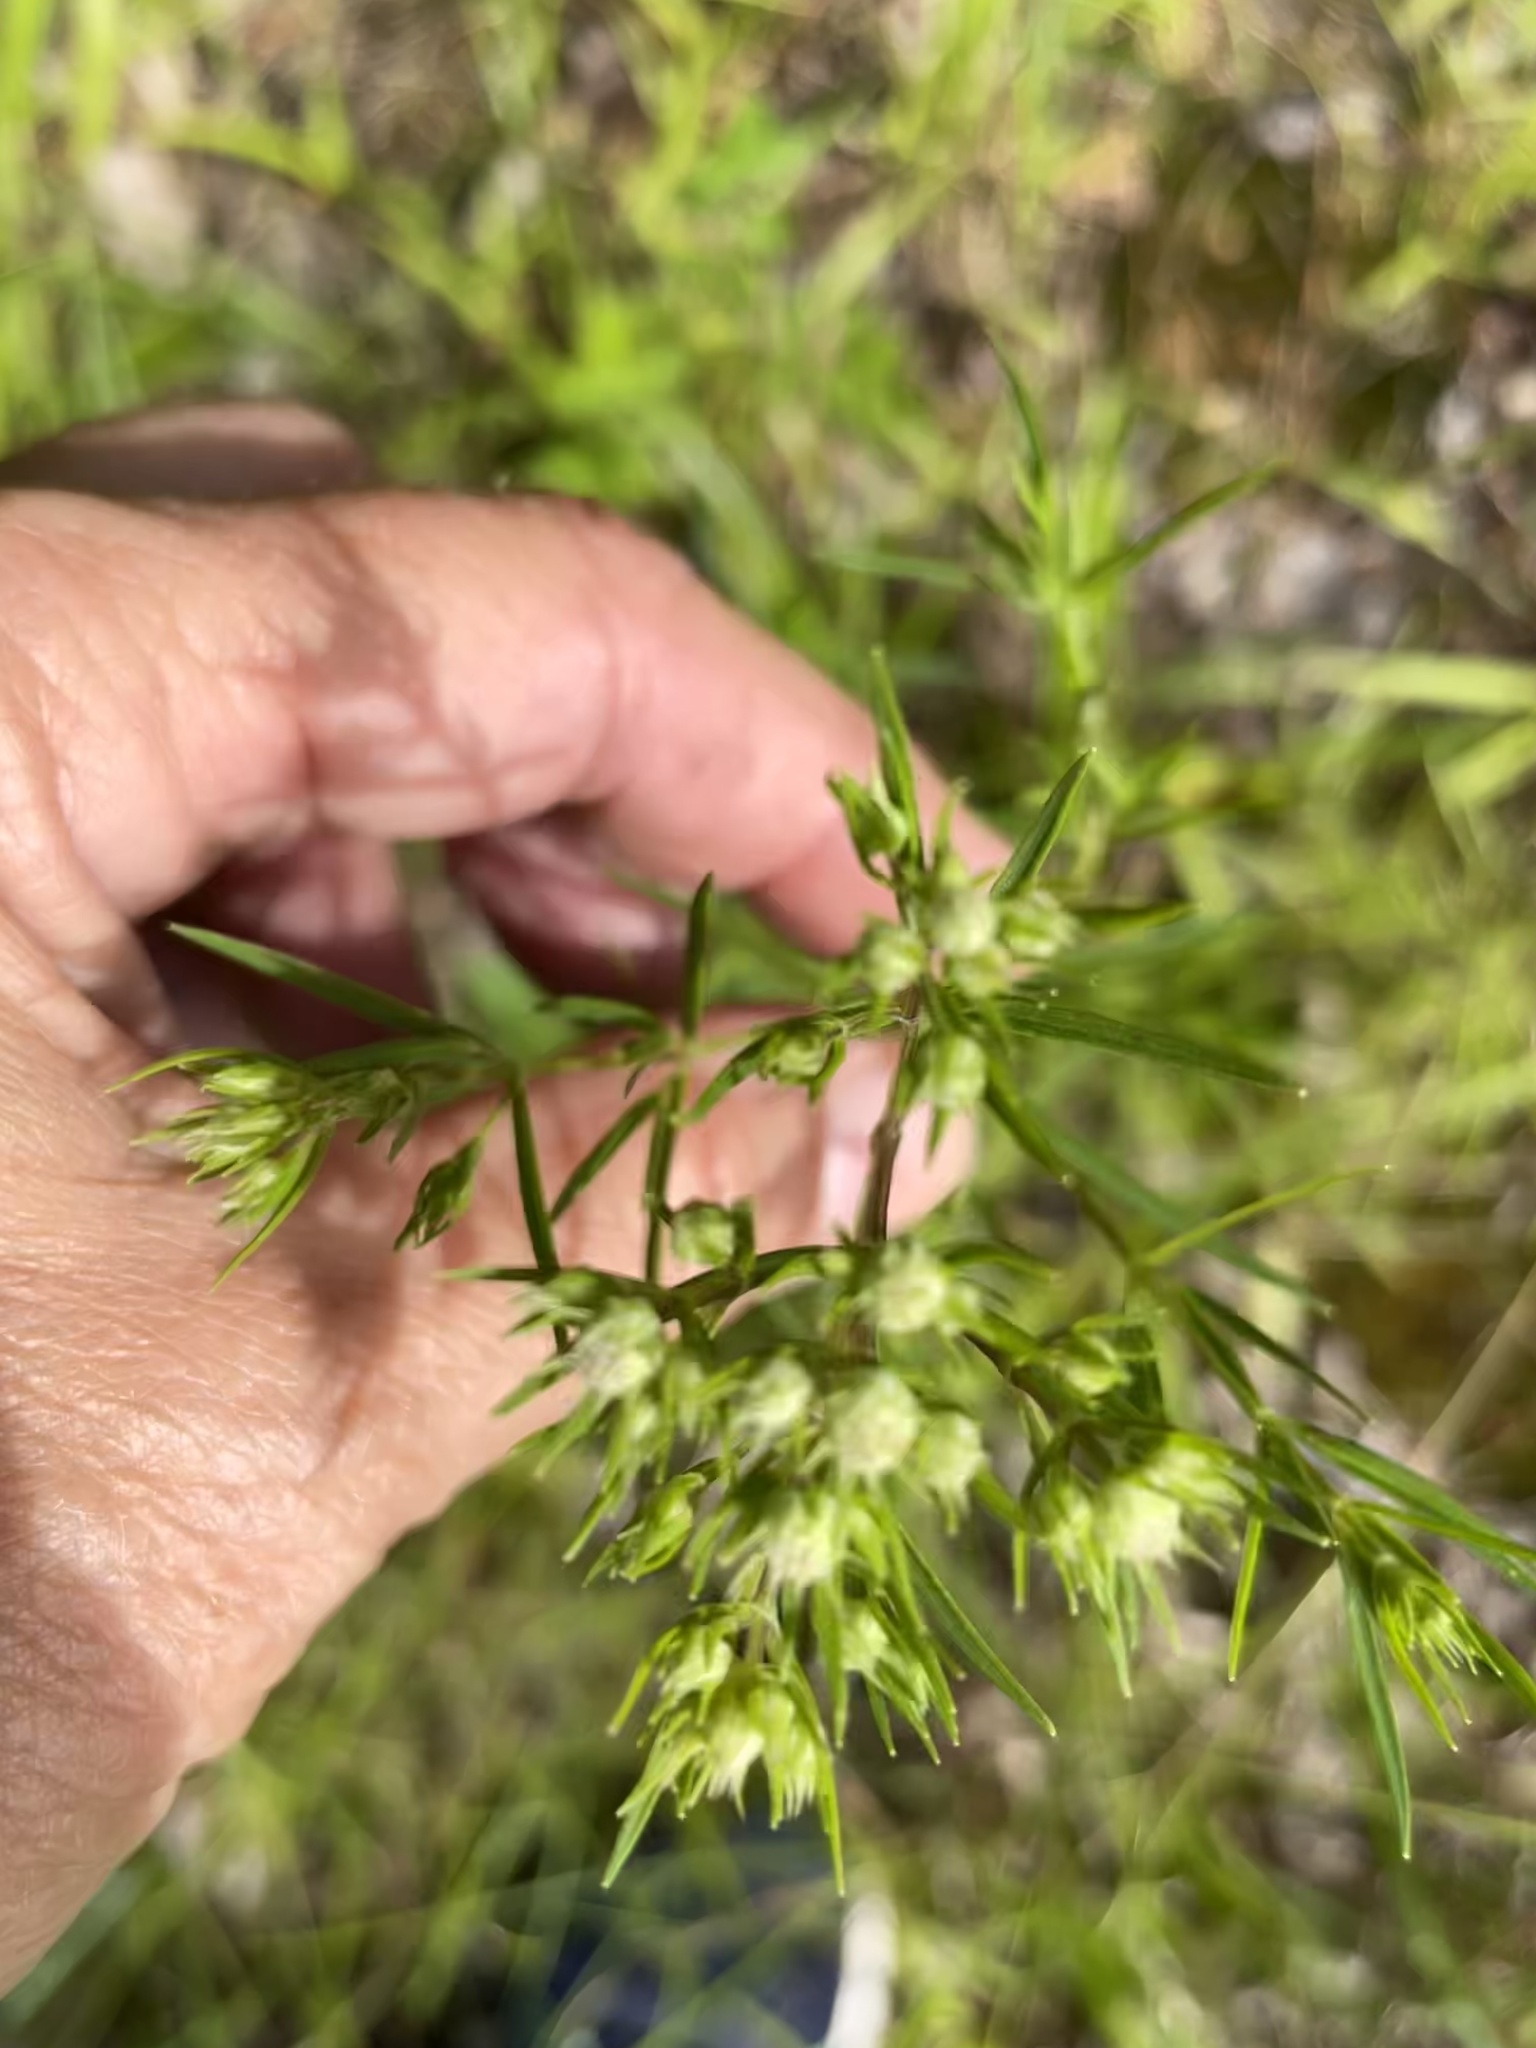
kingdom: Plantae
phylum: Tracheophyta
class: Magnoliopsida
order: Lamiales
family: Lamiaceae
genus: Pycnanthemum
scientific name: Pycnanthemum tenuifolium
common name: Narrow-leaf mountain-mint
